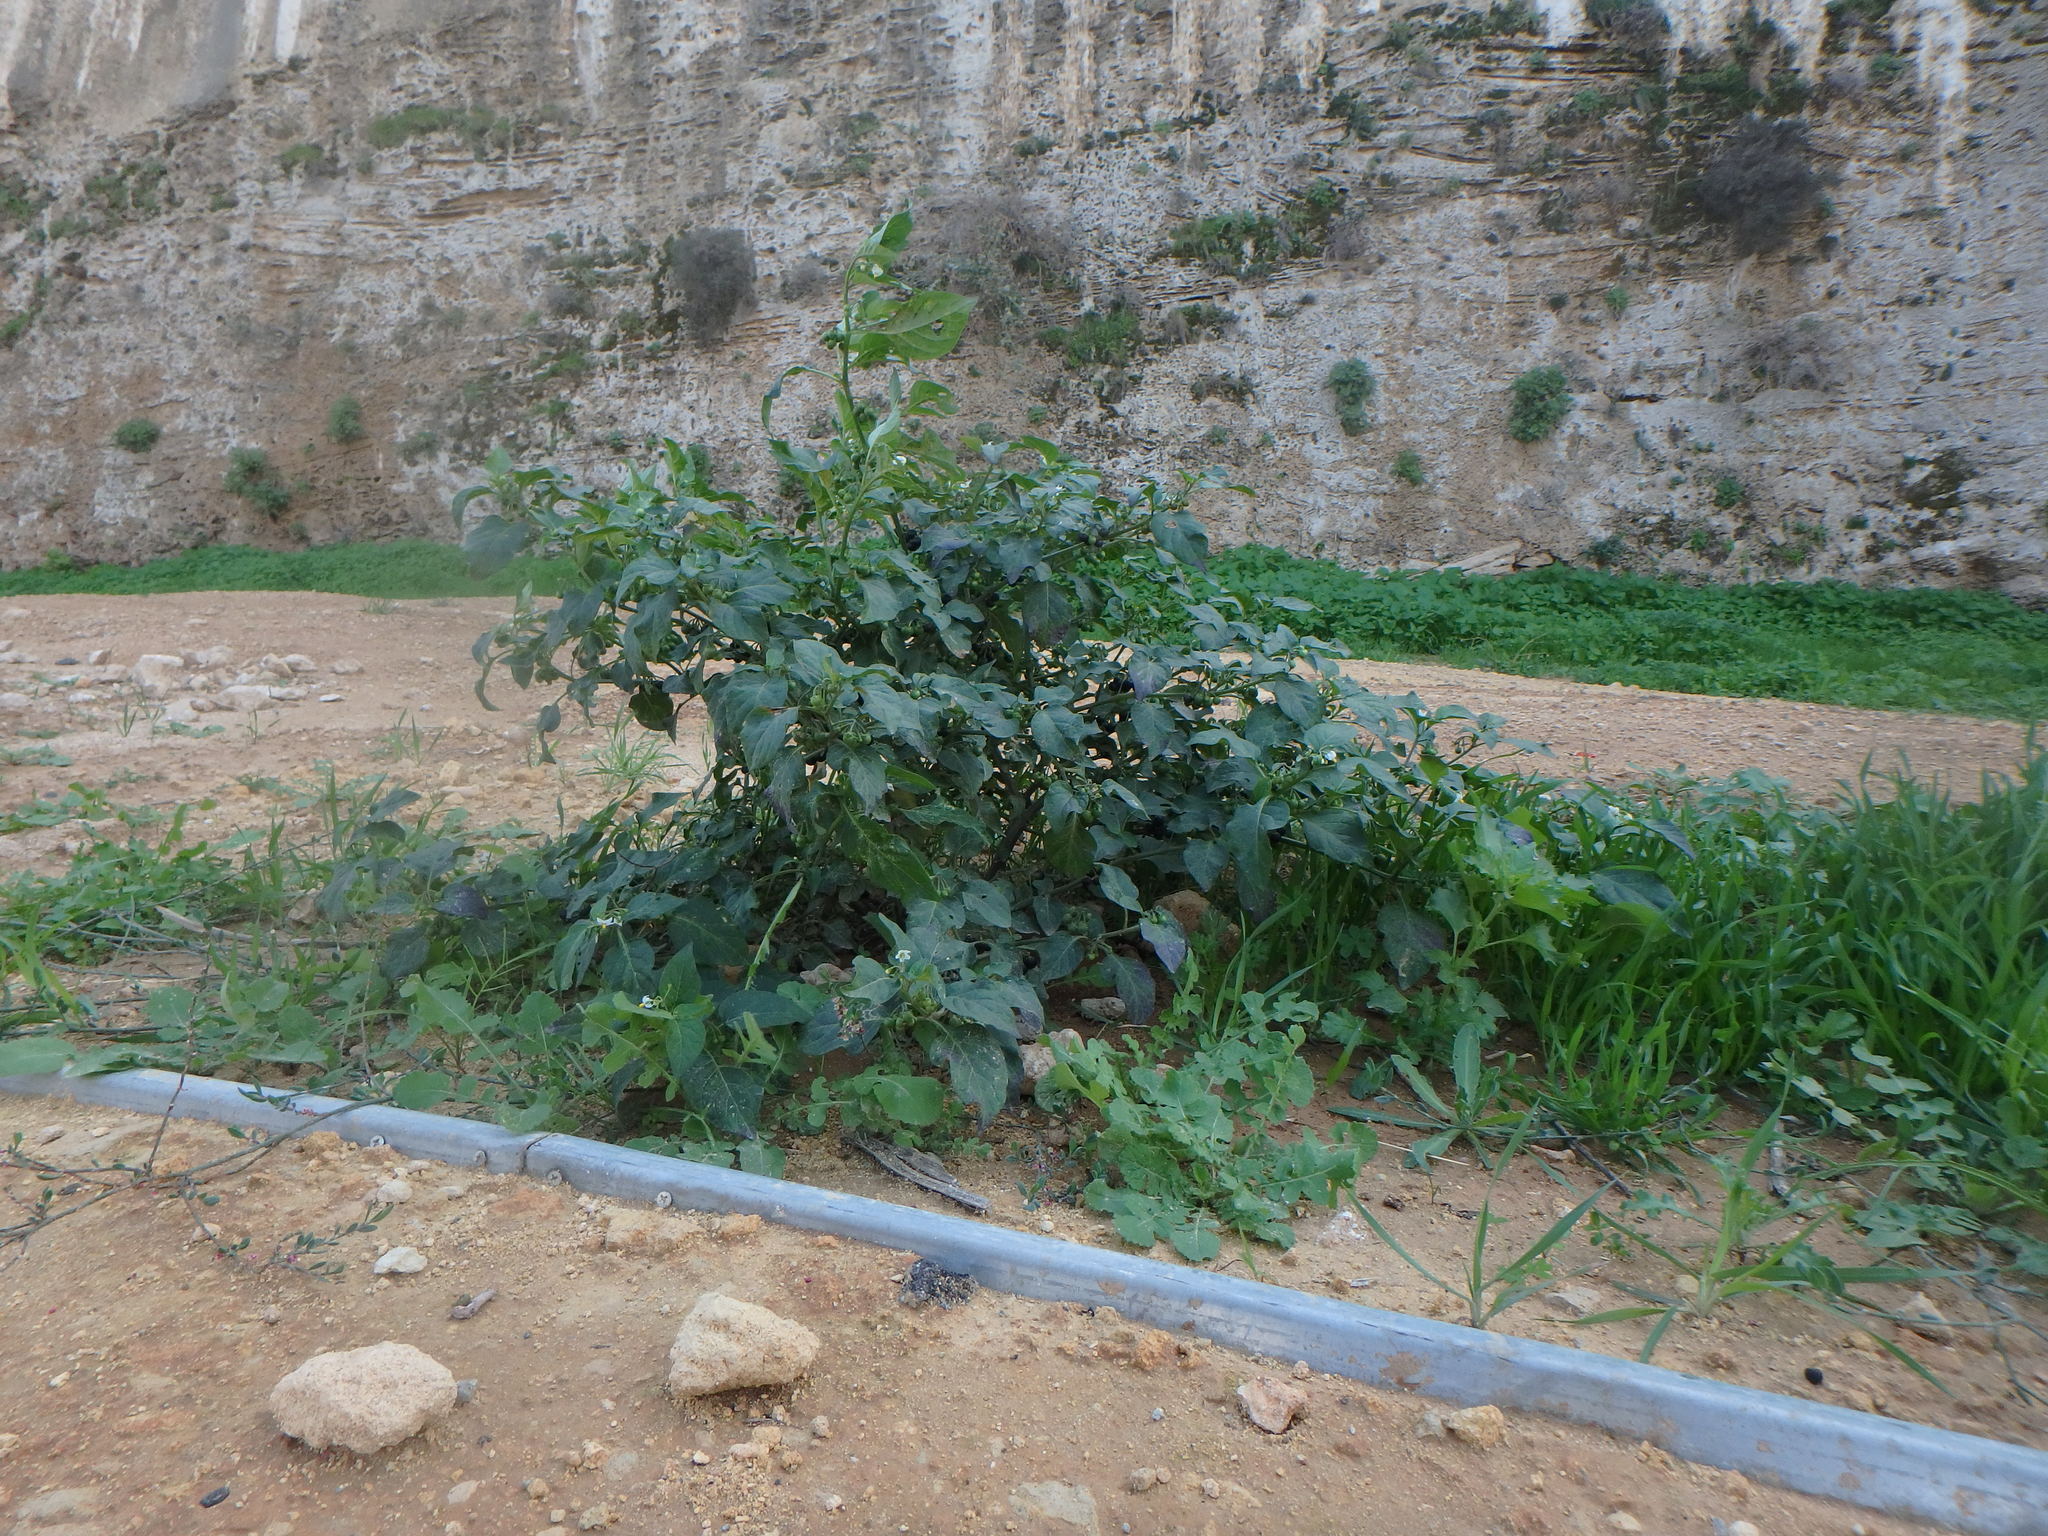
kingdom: Plantae
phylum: Tracheophyta
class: Magnoliopsida
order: Solanales
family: Solanaceae
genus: Solanum
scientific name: Solanum nigrum
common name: Black nightshade
